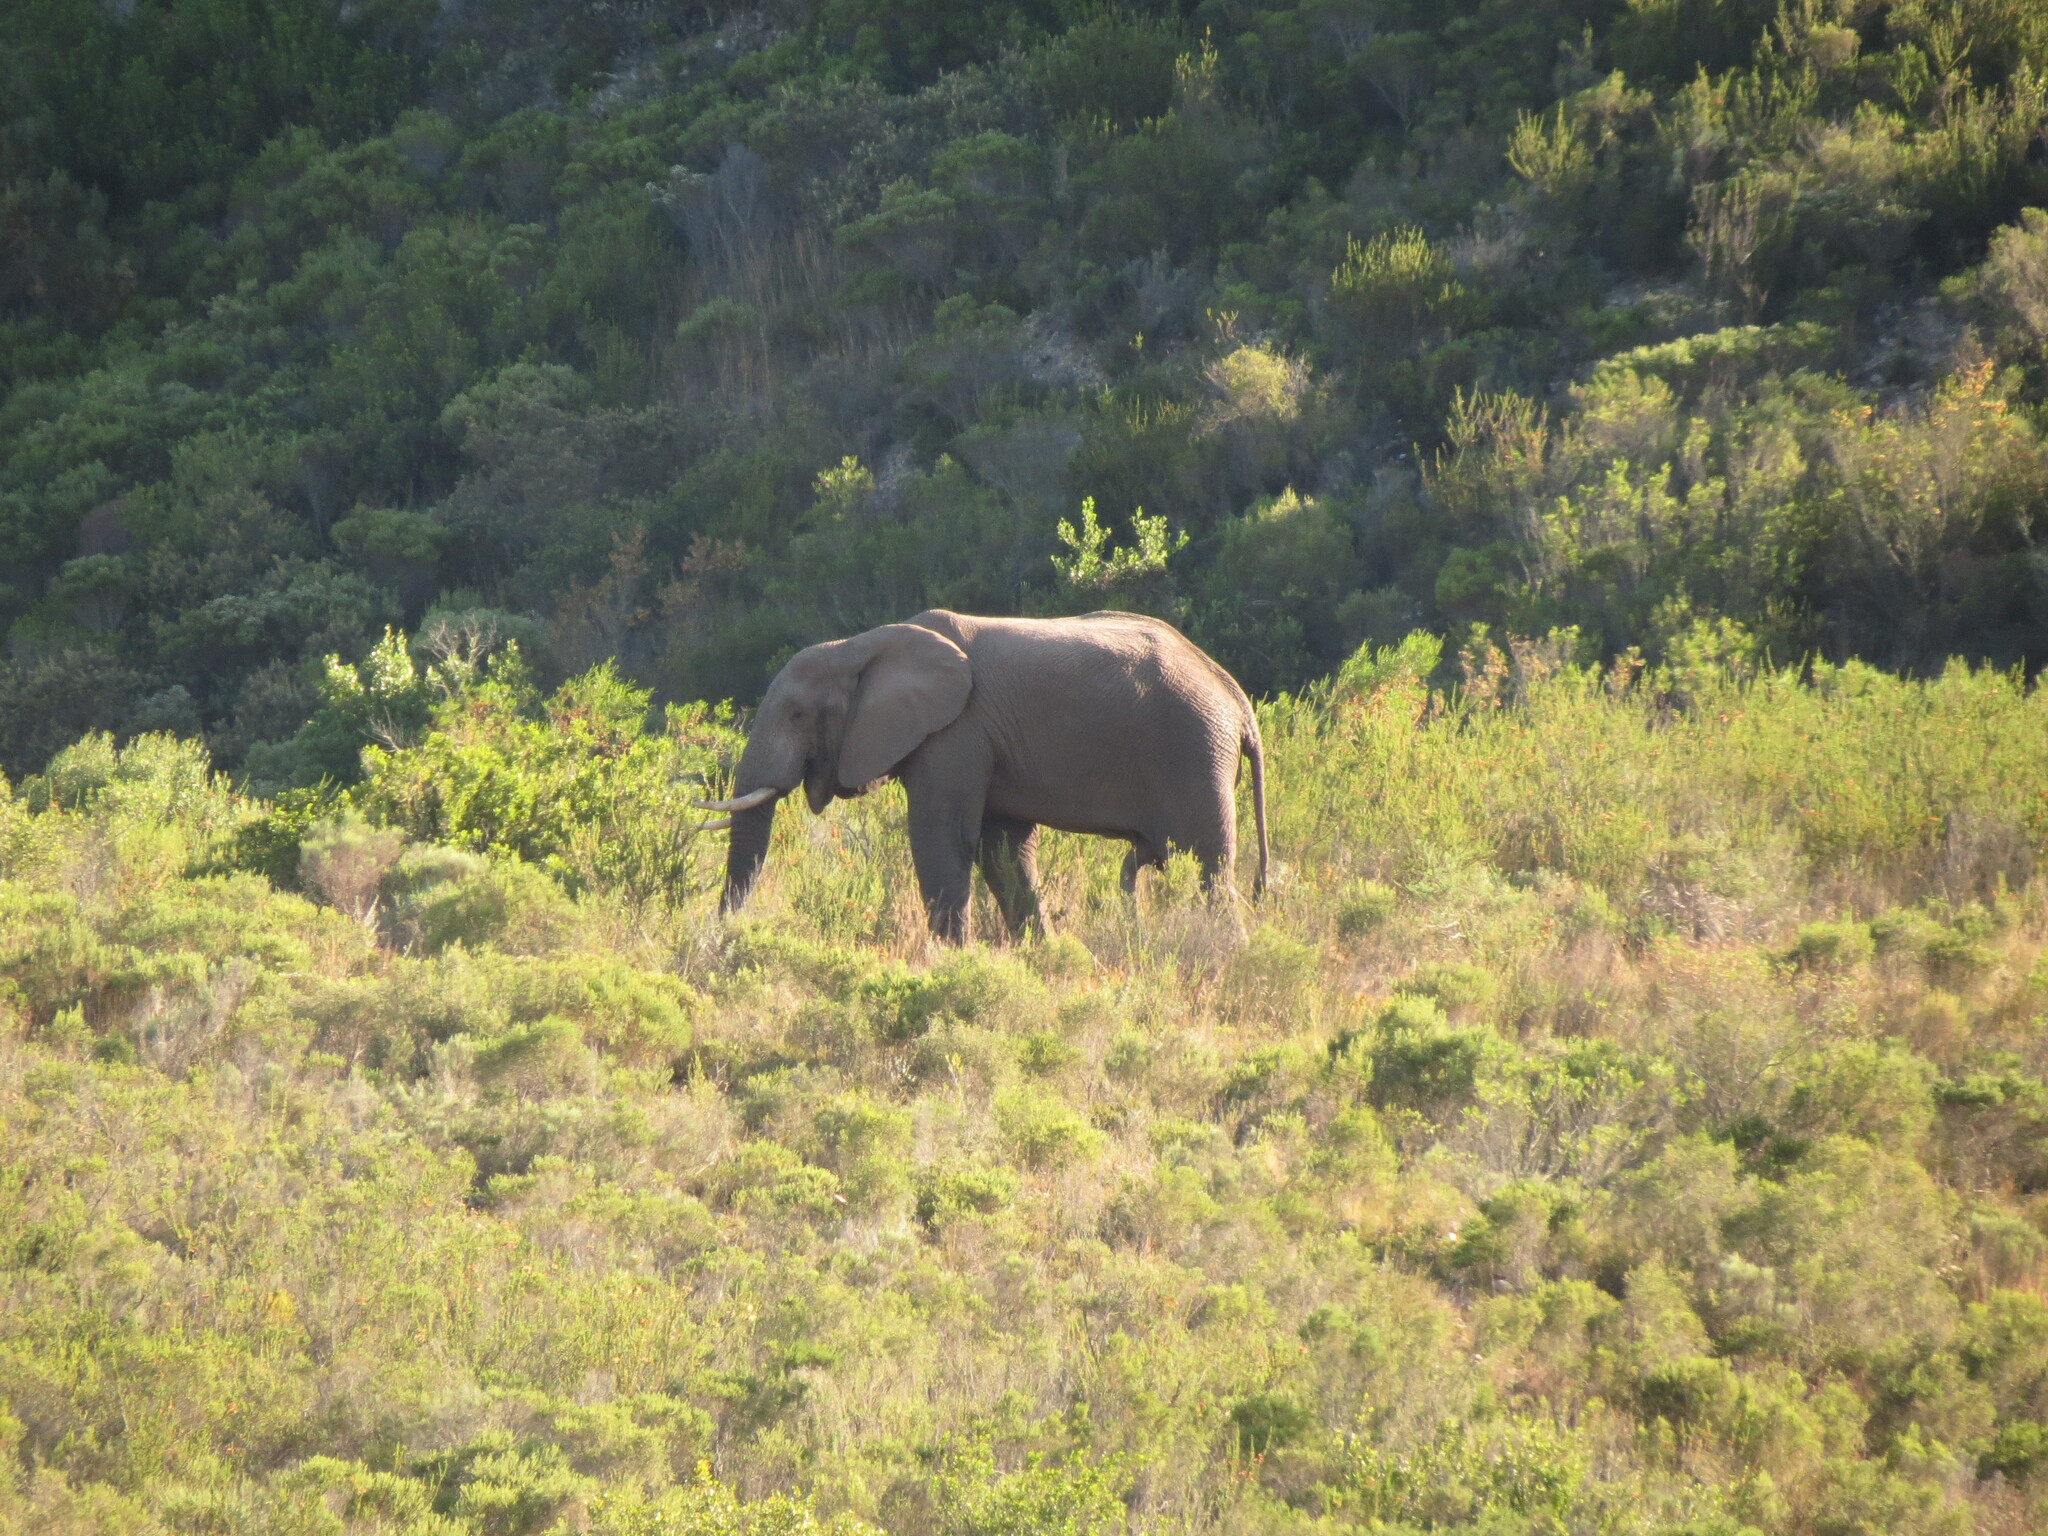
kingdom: Animalia
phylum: Chordata
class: Mammalia
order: Proboscidea
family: Elephantidae
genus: Loxodonta
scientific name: Loxodonta africana
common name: African elephant
